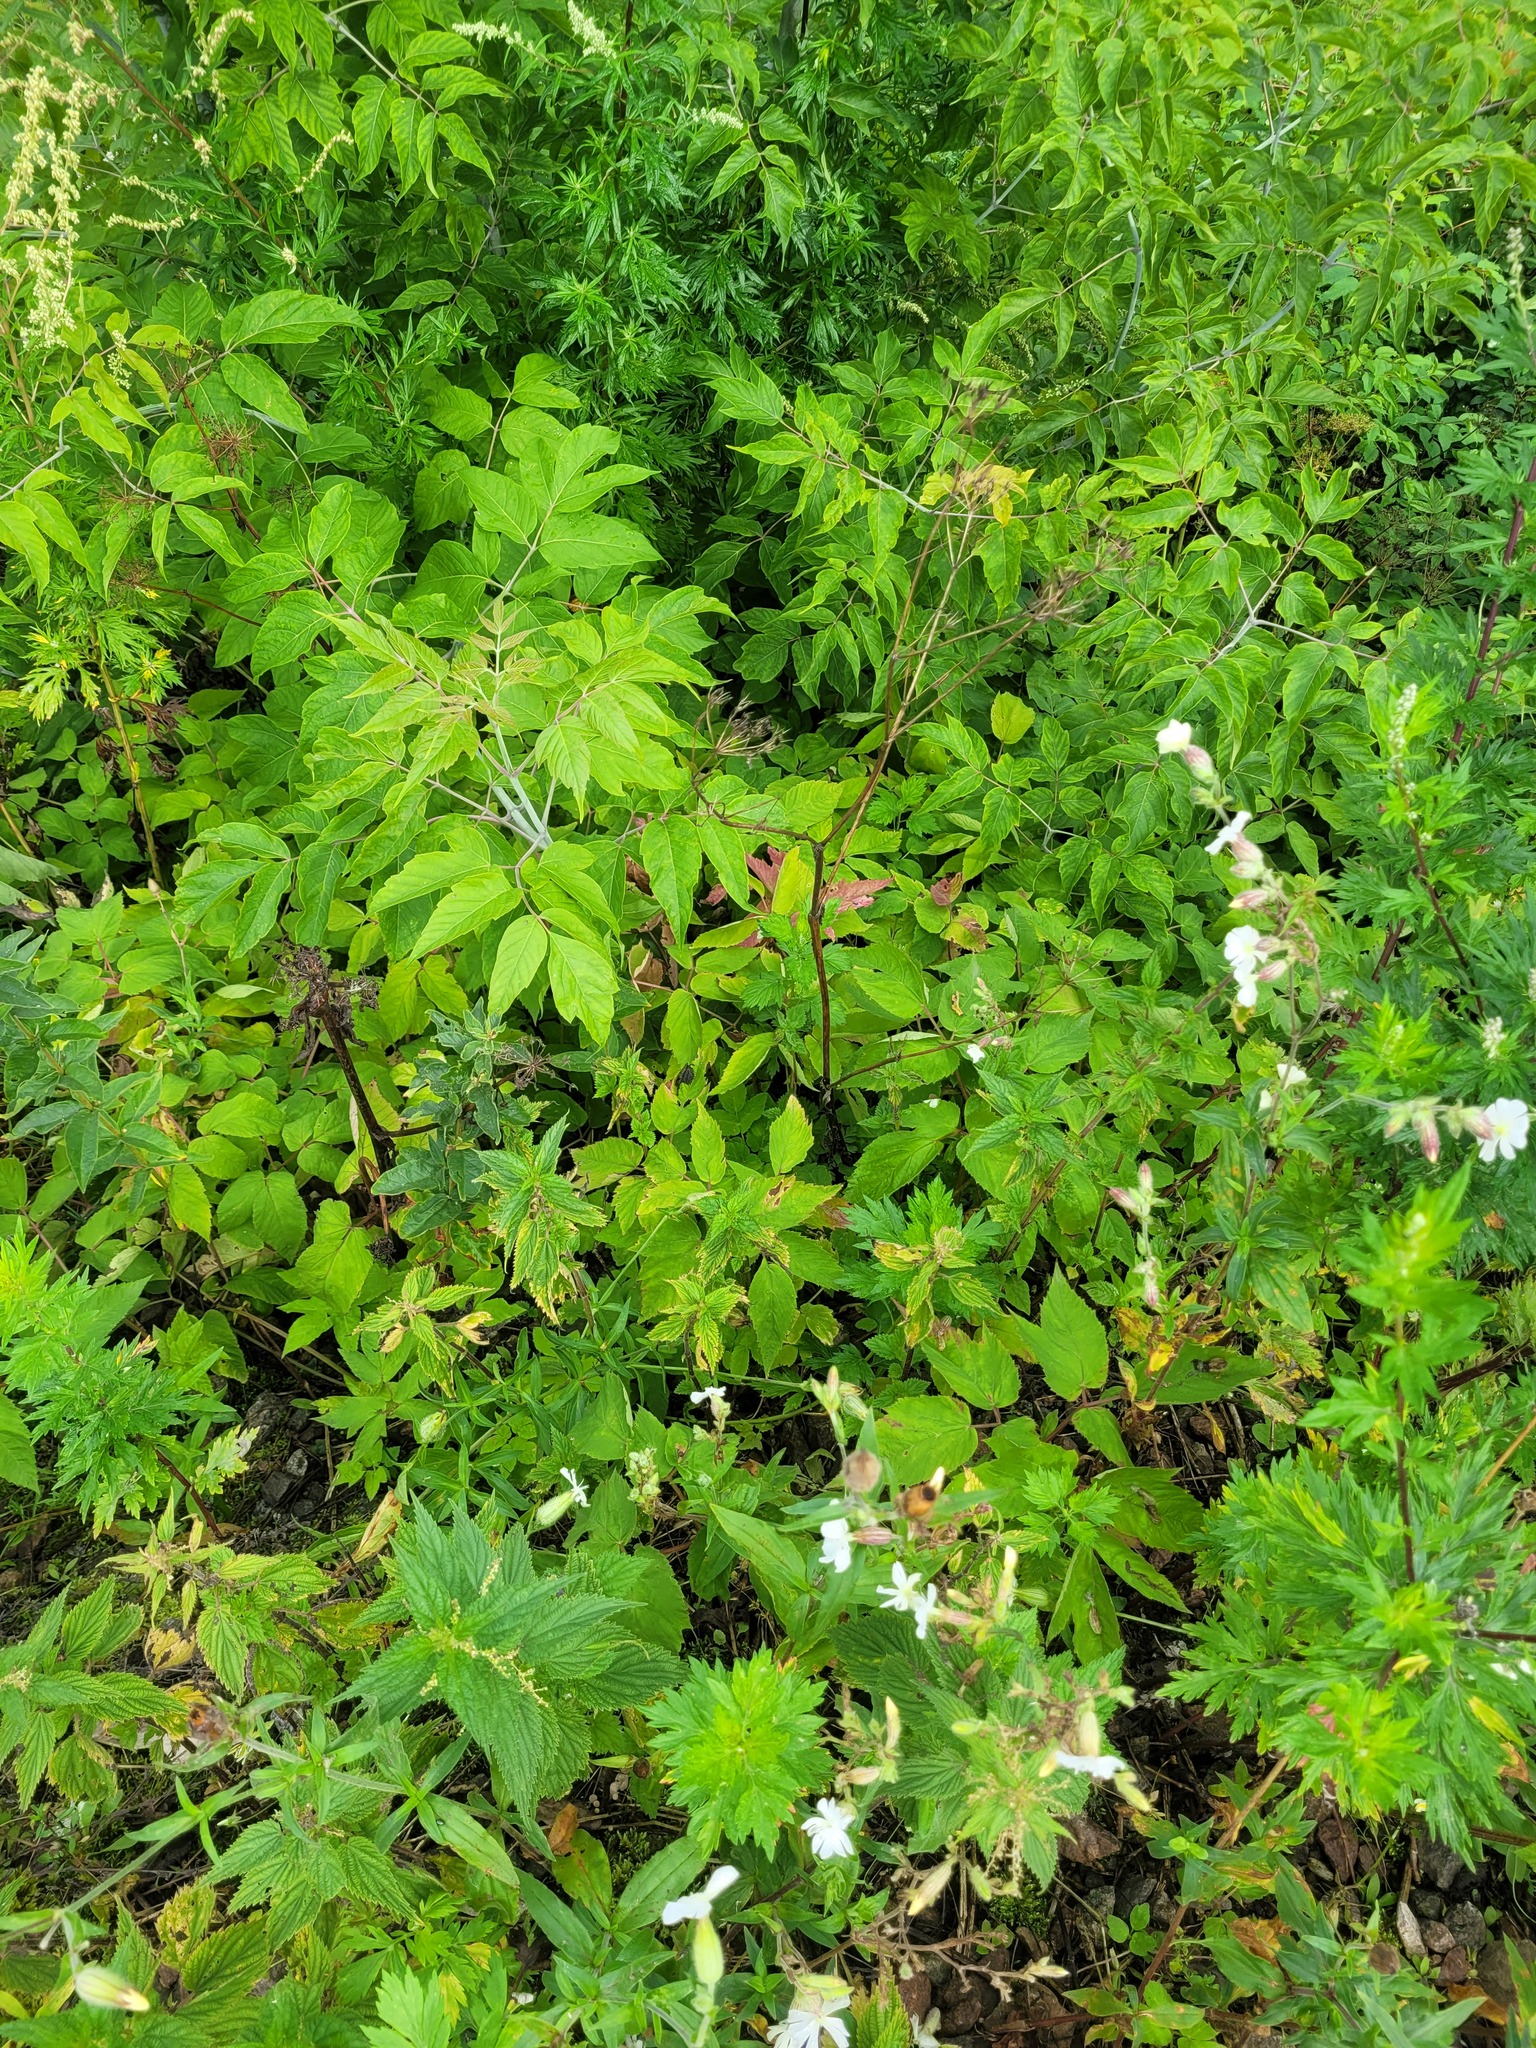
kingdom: Plantae
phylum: Tracheophyta
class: Magnoliopsida
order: Apiales
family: Apiaceae
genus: Aegopodium
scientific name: Aegopodium podagraria
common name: Ground-elder
